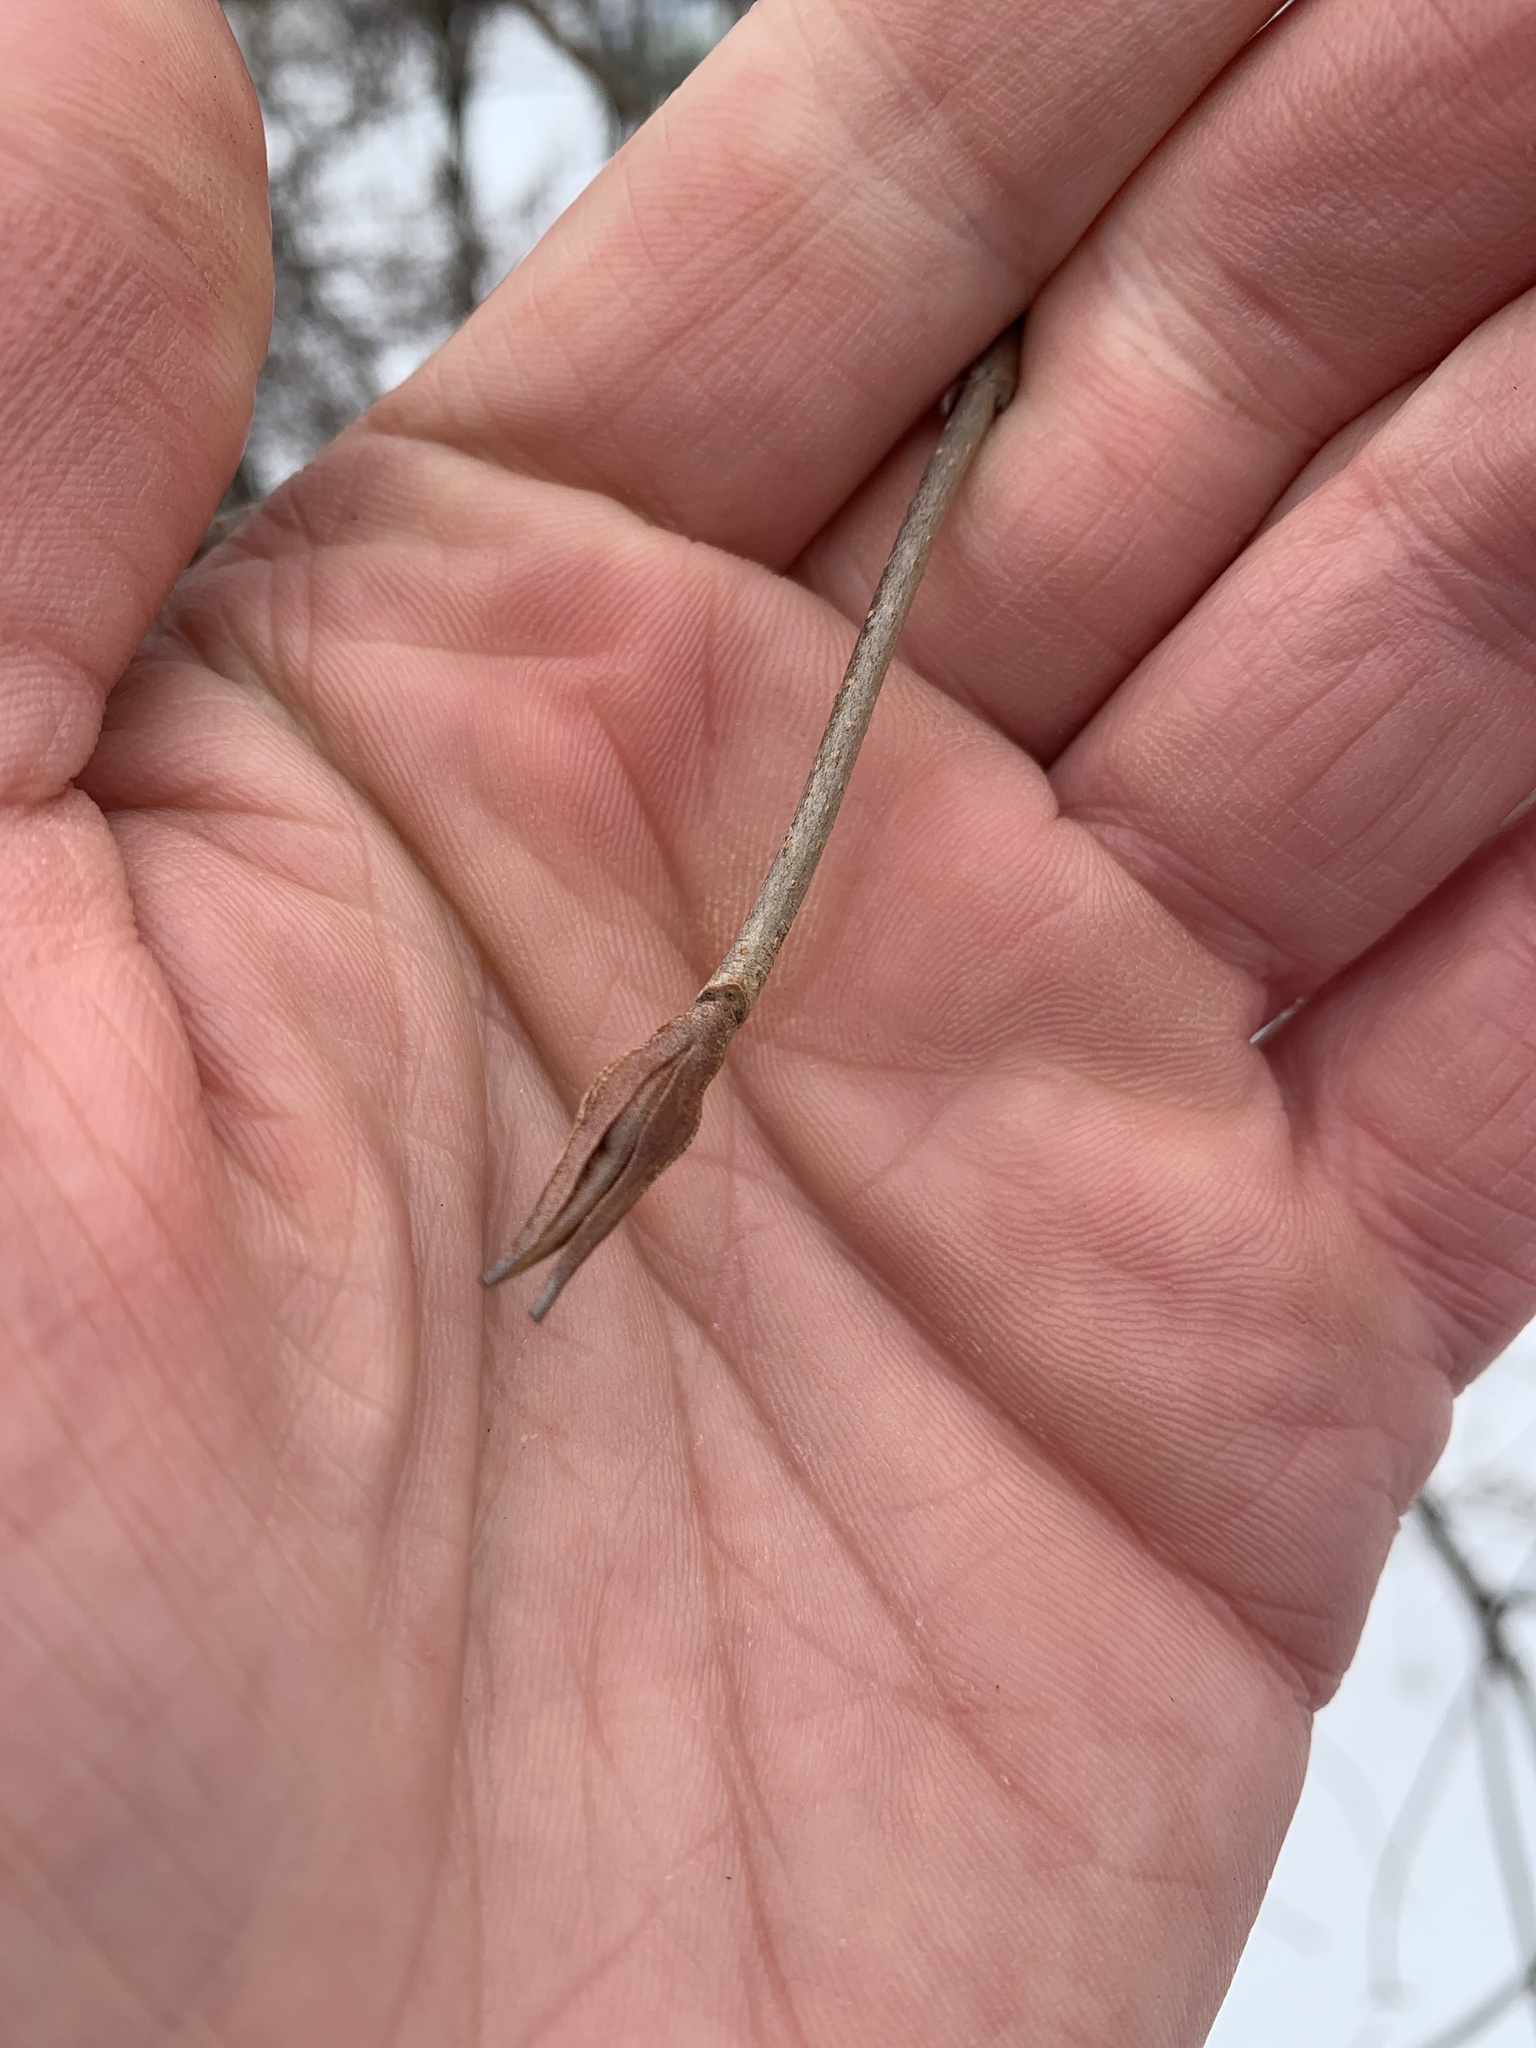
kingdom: Plantae
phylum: Tracheophyta
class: Magnoliopsida
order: Dipsacales
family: Viburnaceae
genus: Viburnum
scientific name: Viburnum lentago
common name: Black haw
